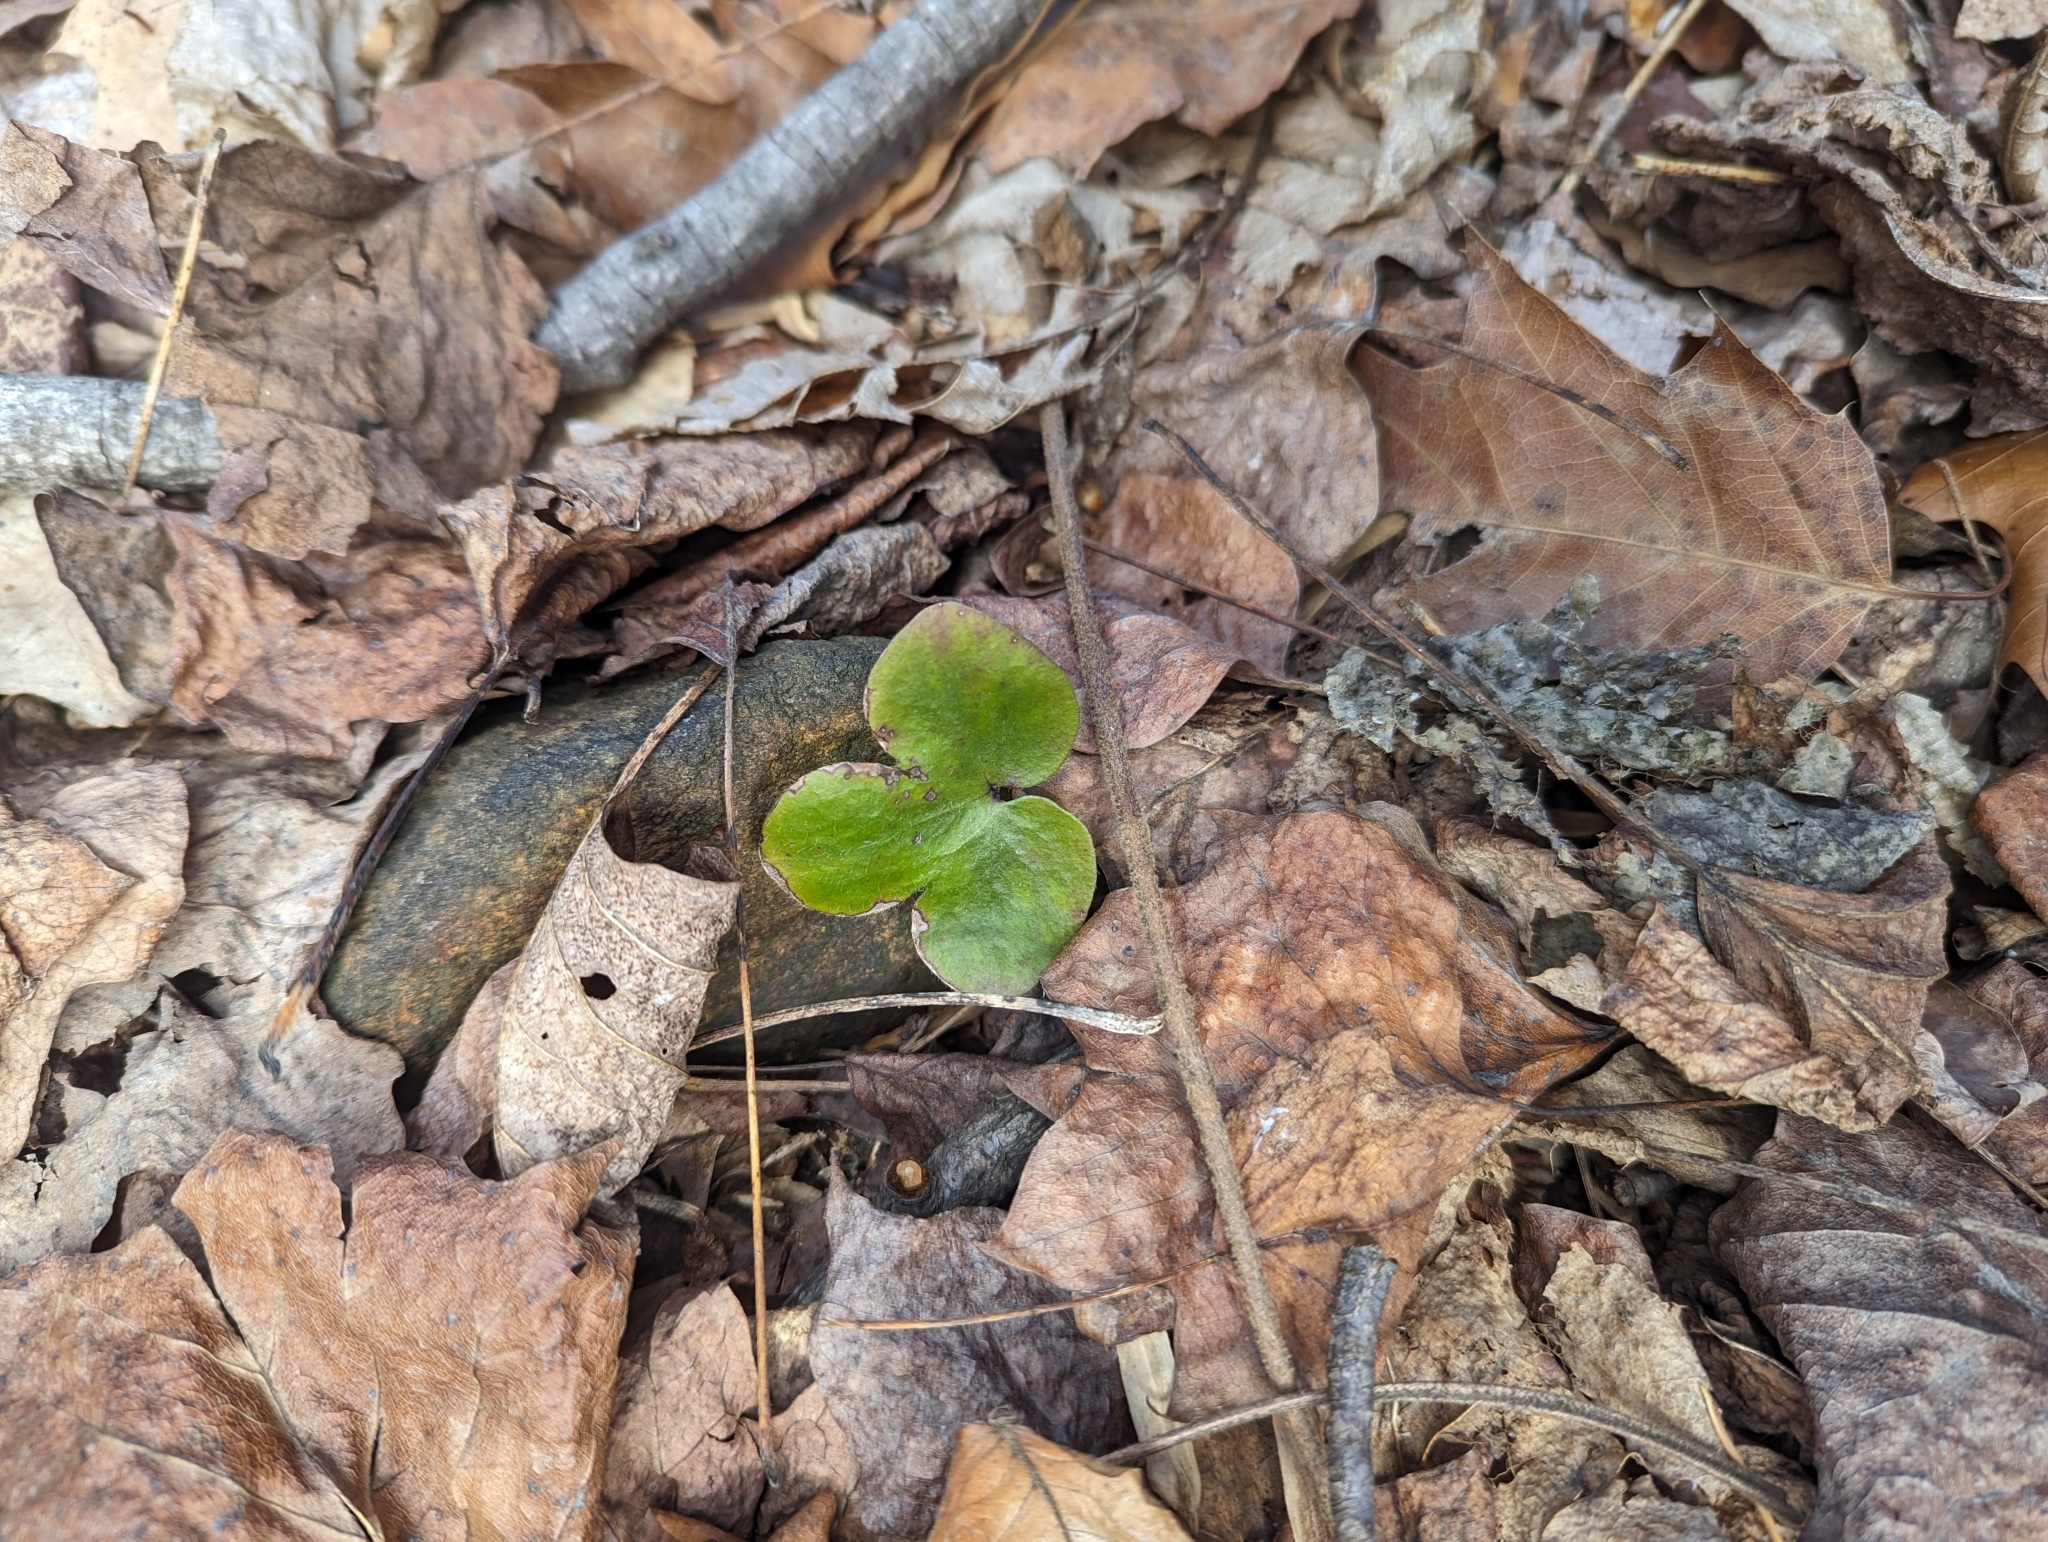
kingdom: Plantae
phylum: Tracheophyta
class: Magnoliopsida
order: Ranunculales
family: Ranunculaceae
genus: Hepatica
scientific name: Hepatica americana
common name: American hepatica
